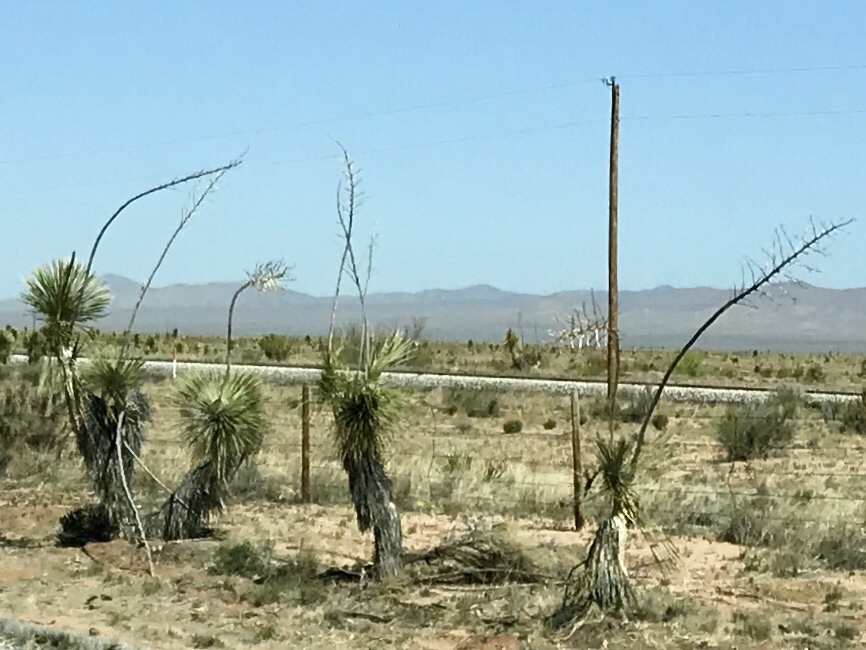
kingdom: Plantae
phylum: Tracheophyta
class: Liliopsida
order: Asparagales
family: Asparagaceae
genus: Yucca
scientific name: Yucca elata
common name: Palmella
